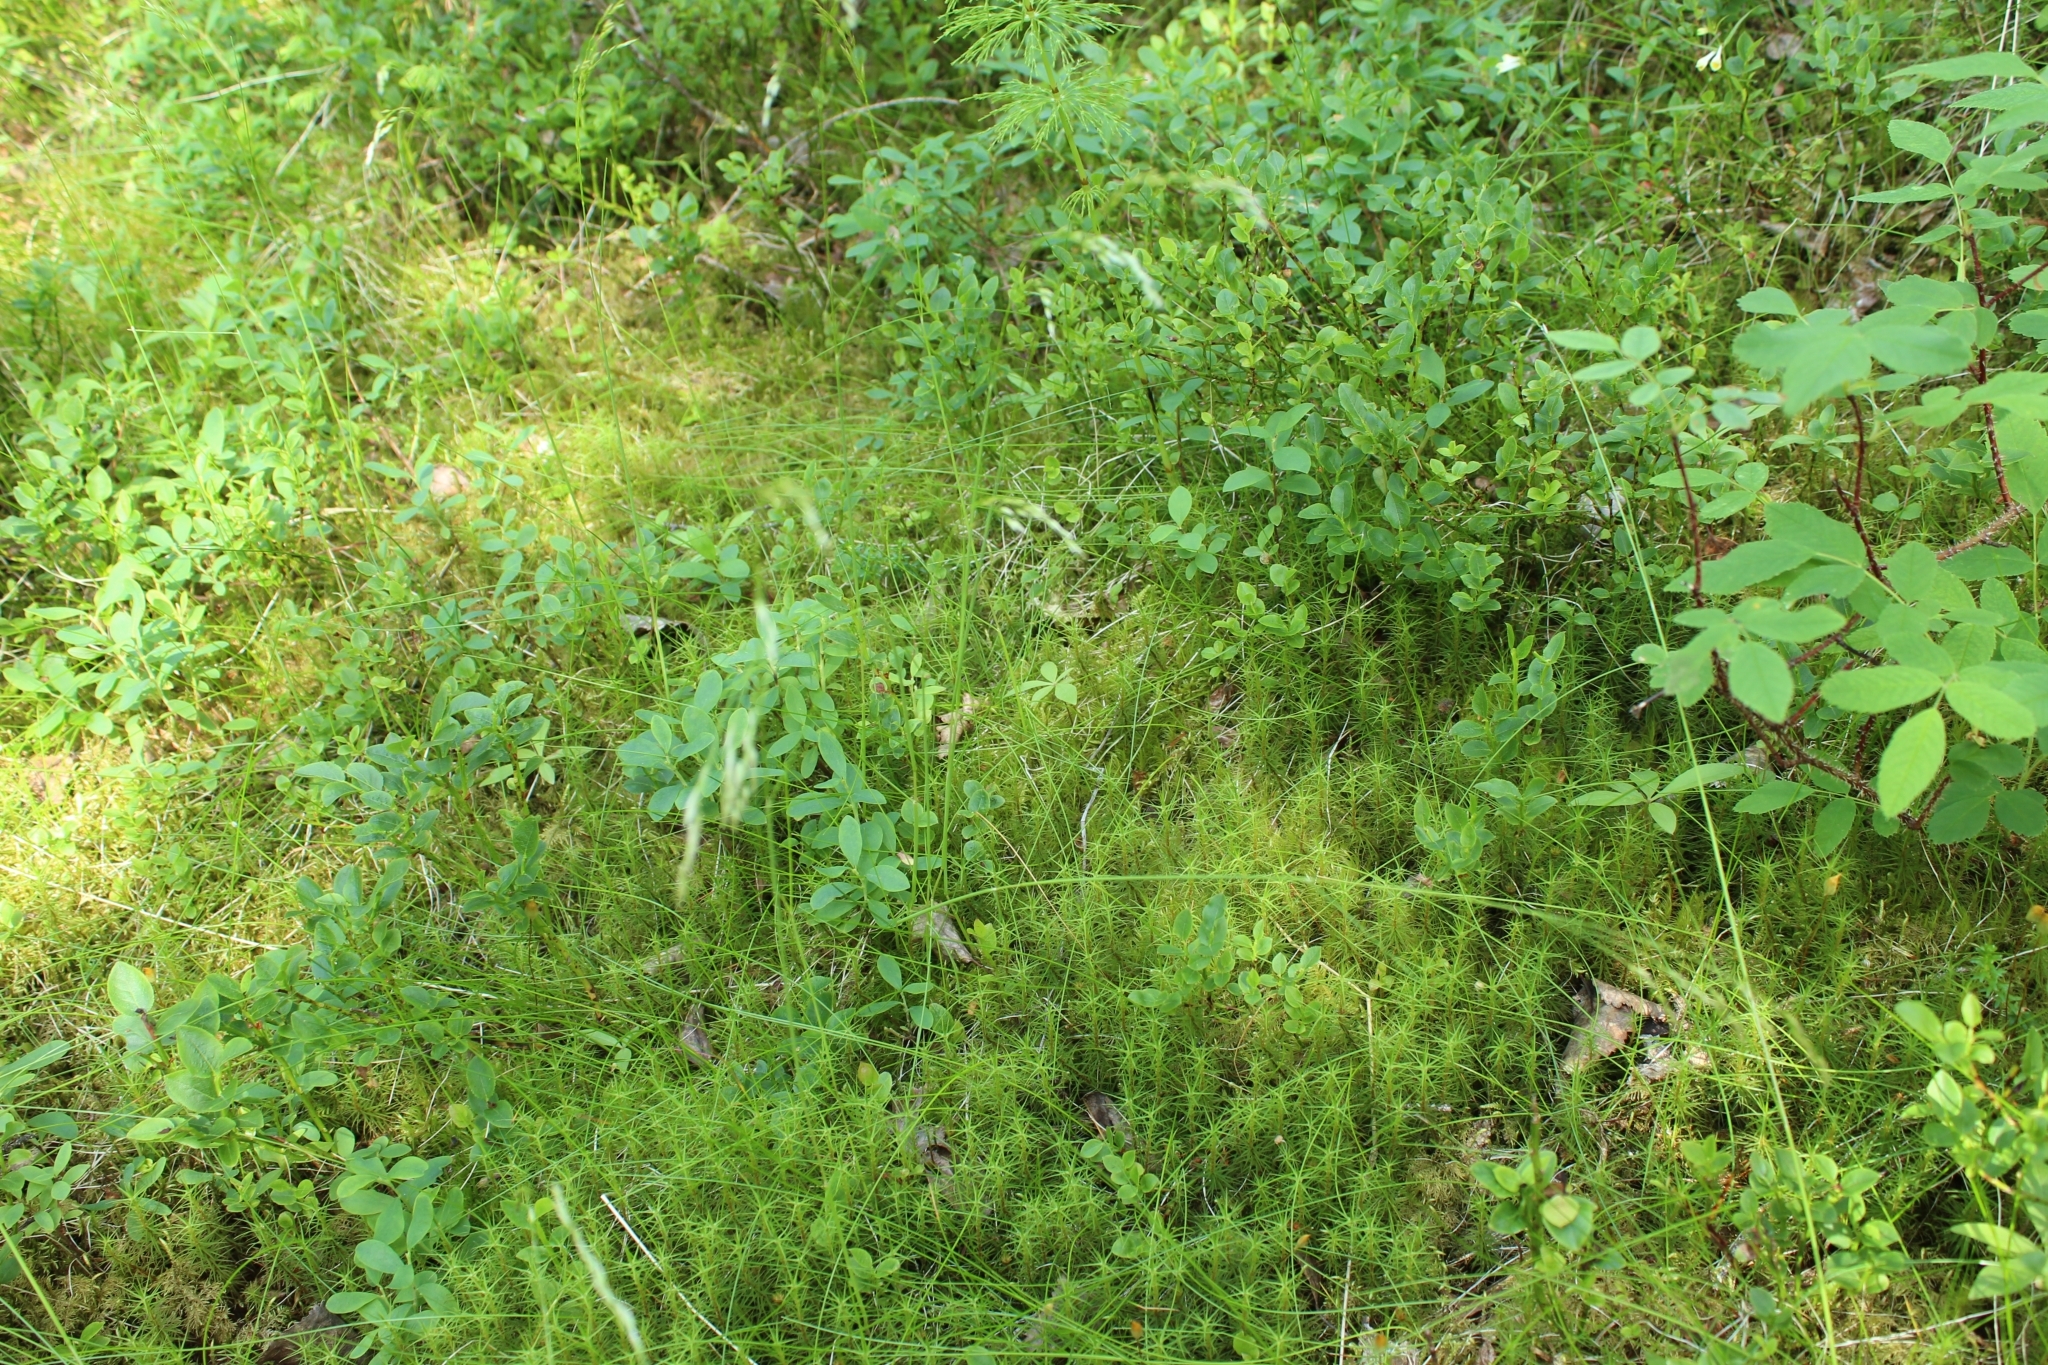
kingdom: Plantae
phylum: Tracheophyta
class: Liliopsida
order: Poales
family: Poaceae
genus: Avenella
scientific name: Avenella flexuosa
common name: Wavy hairgrass
